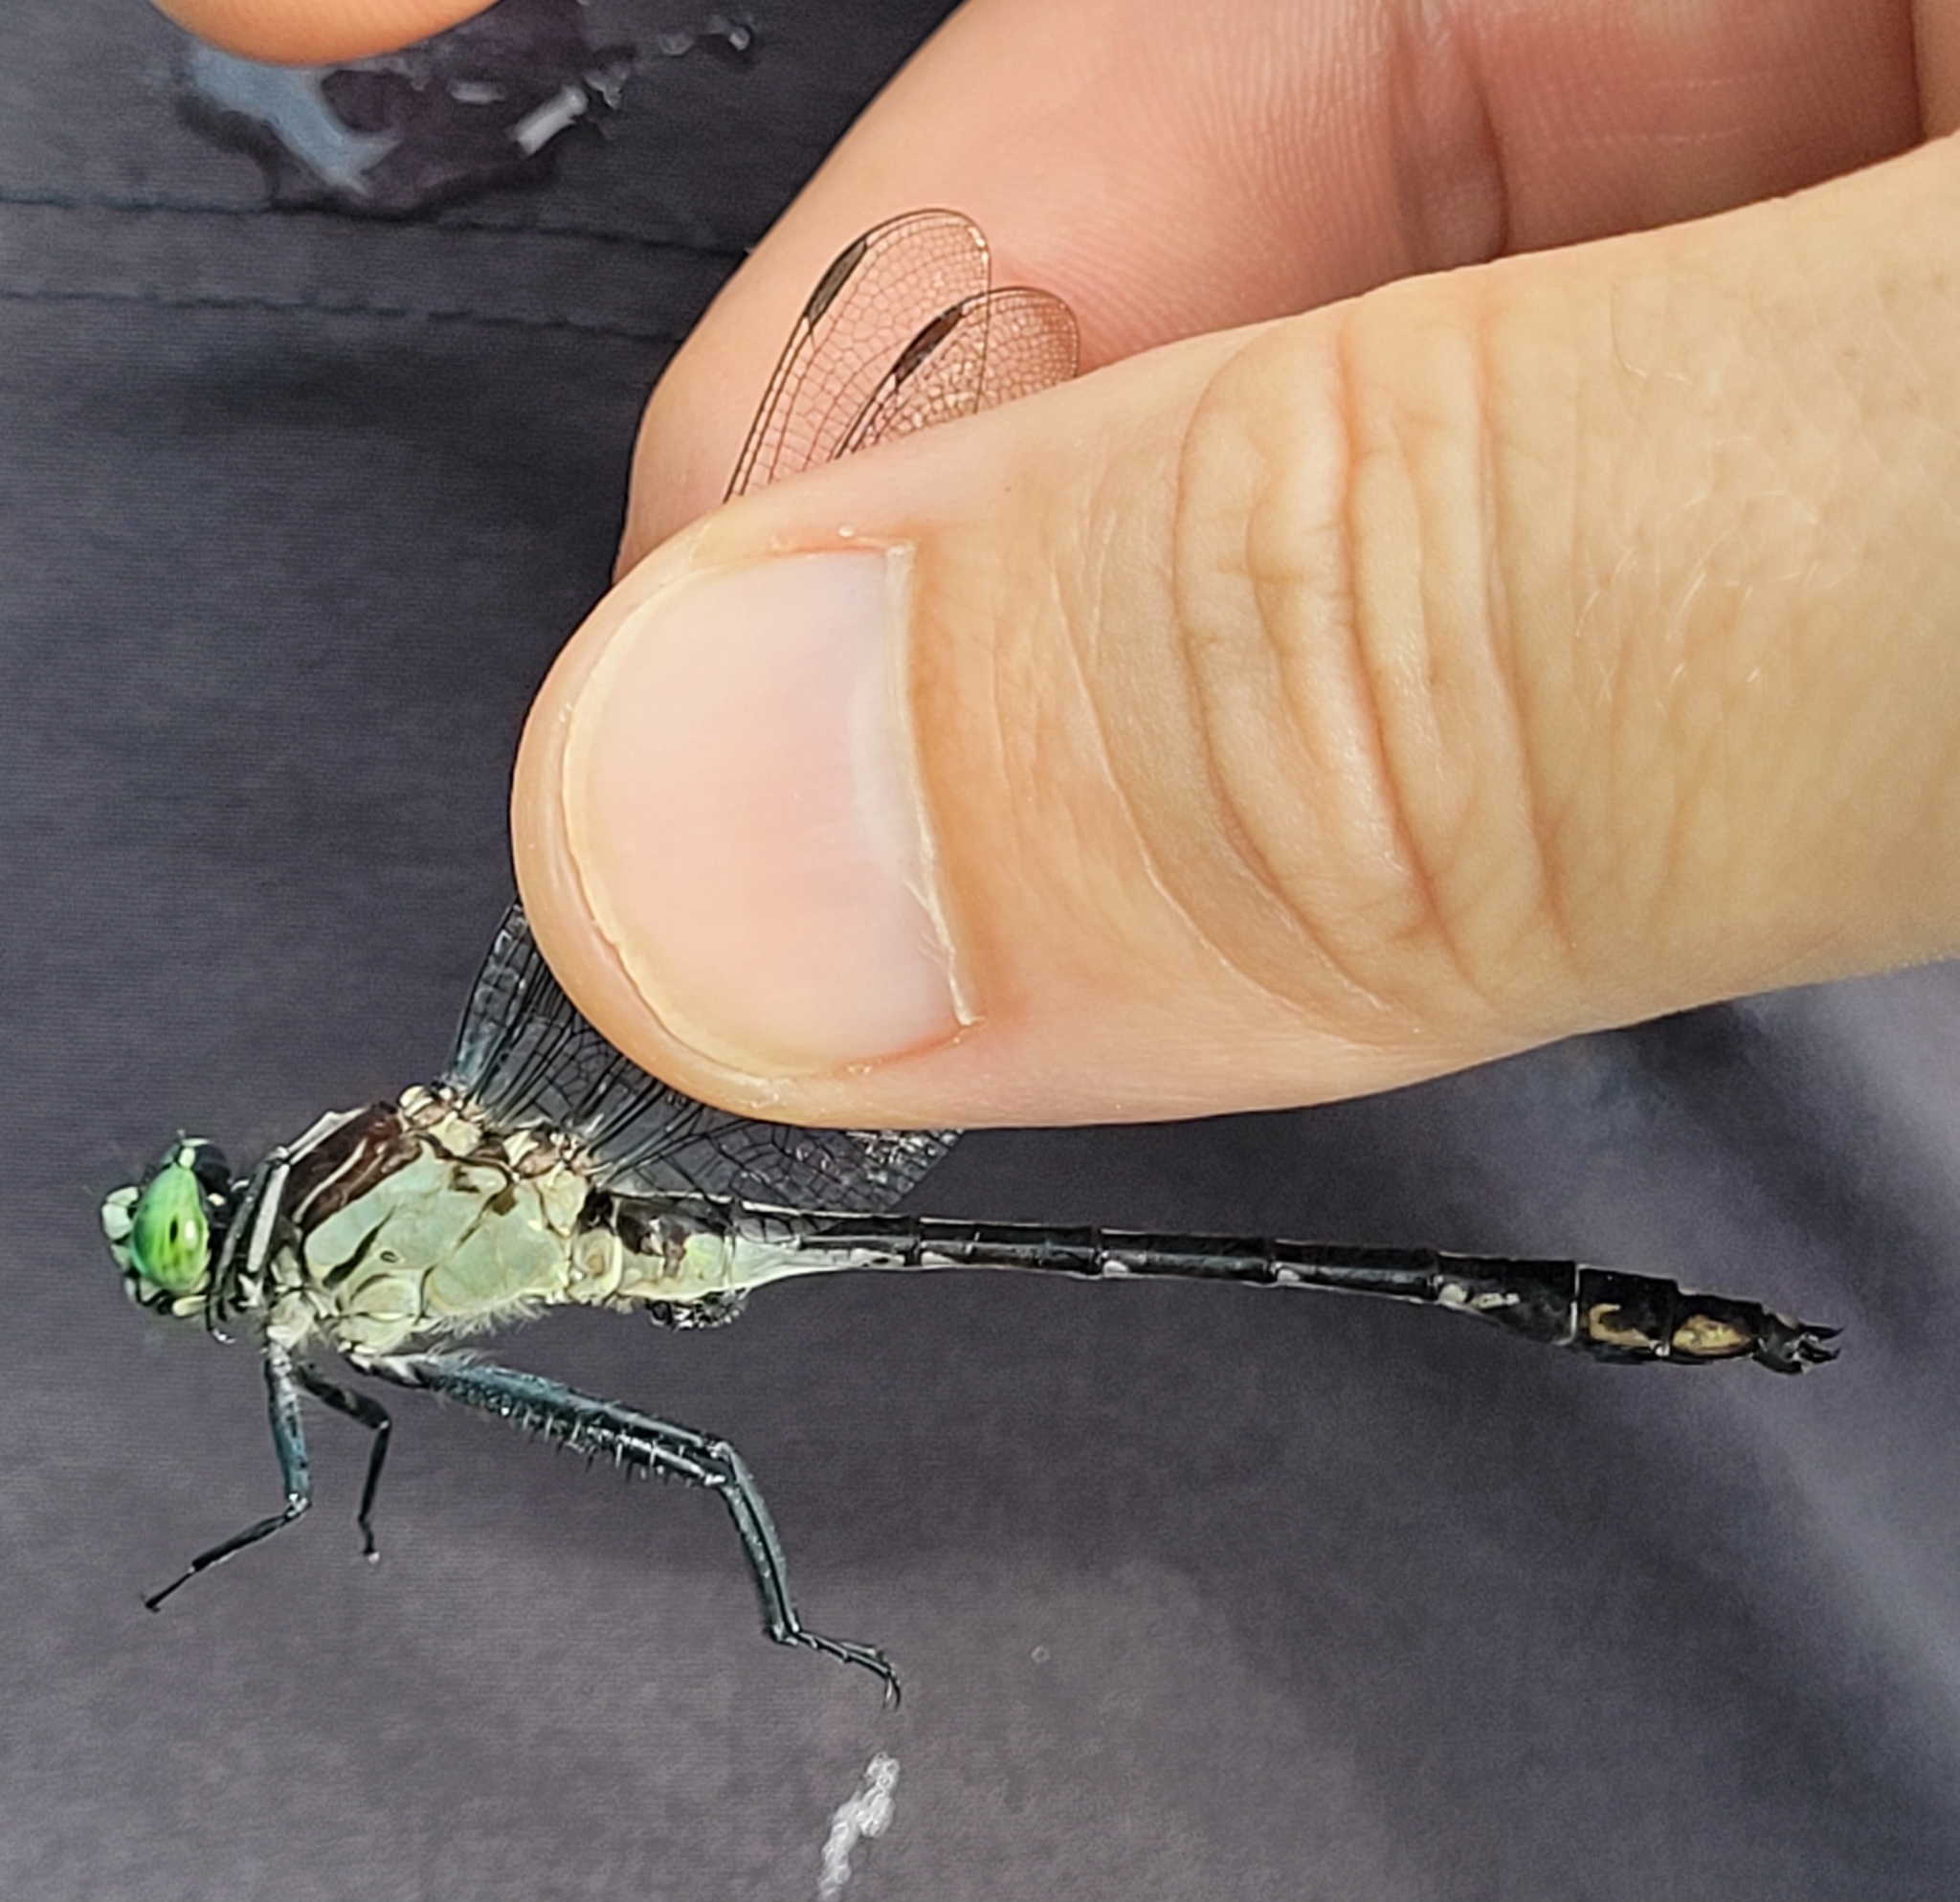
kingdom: Animalia
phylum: Arthropoda
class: Insecta
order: Odonata
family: Gomphidae
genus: Dromogomphus
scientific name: Dromogomphus spinosus
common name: Black-shouldered spinyleg
